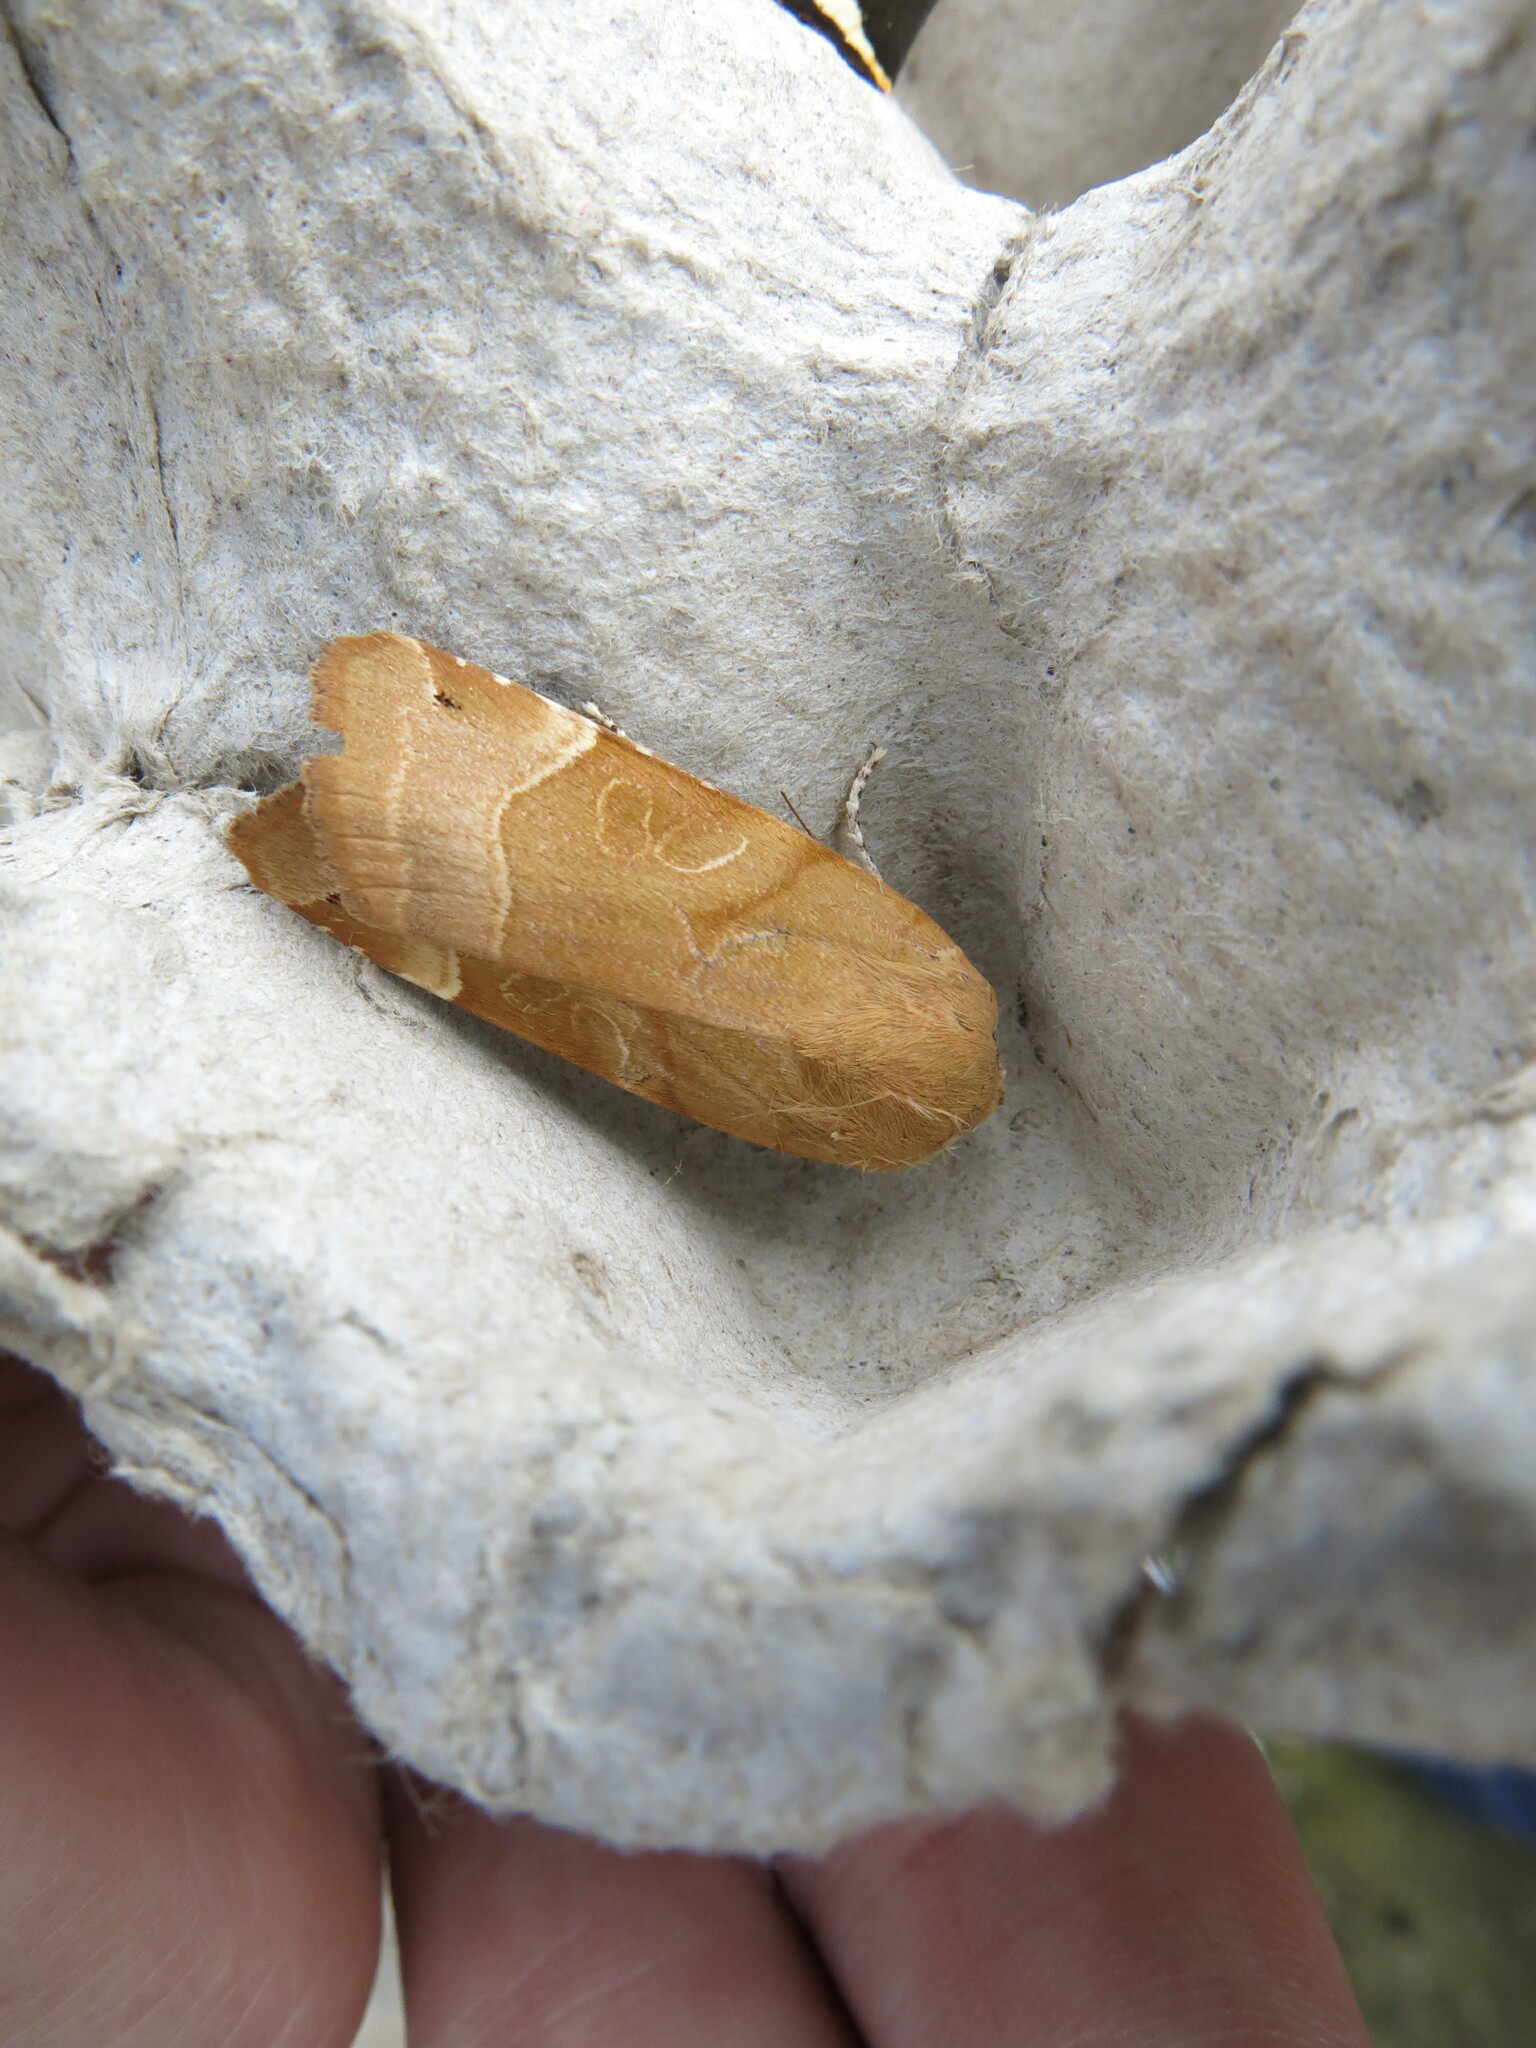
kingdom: Animalia
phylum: Arthropoda
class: Insecta
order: Lepidoptera
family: Noctuidae
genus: Noctua
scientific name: Noctua fimbriata
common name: Broad-bordered yellow underwing
